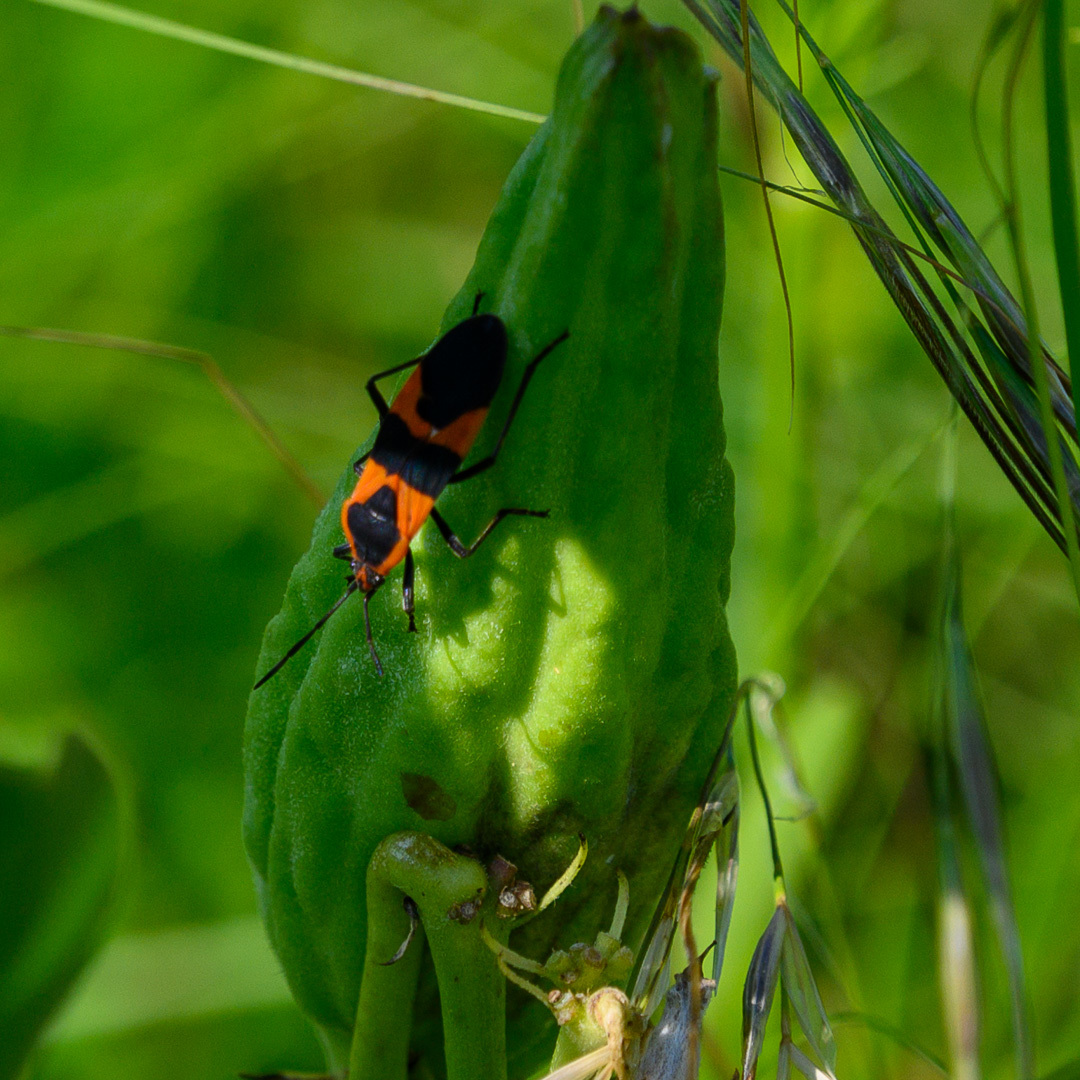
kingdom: Animalia
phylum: Arthropoda
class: Insecta
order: Hemiptera
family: Lygaeidae
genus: Oncopeltus
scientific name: Oncopeltus fasciatus
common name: Large milkweed bug
